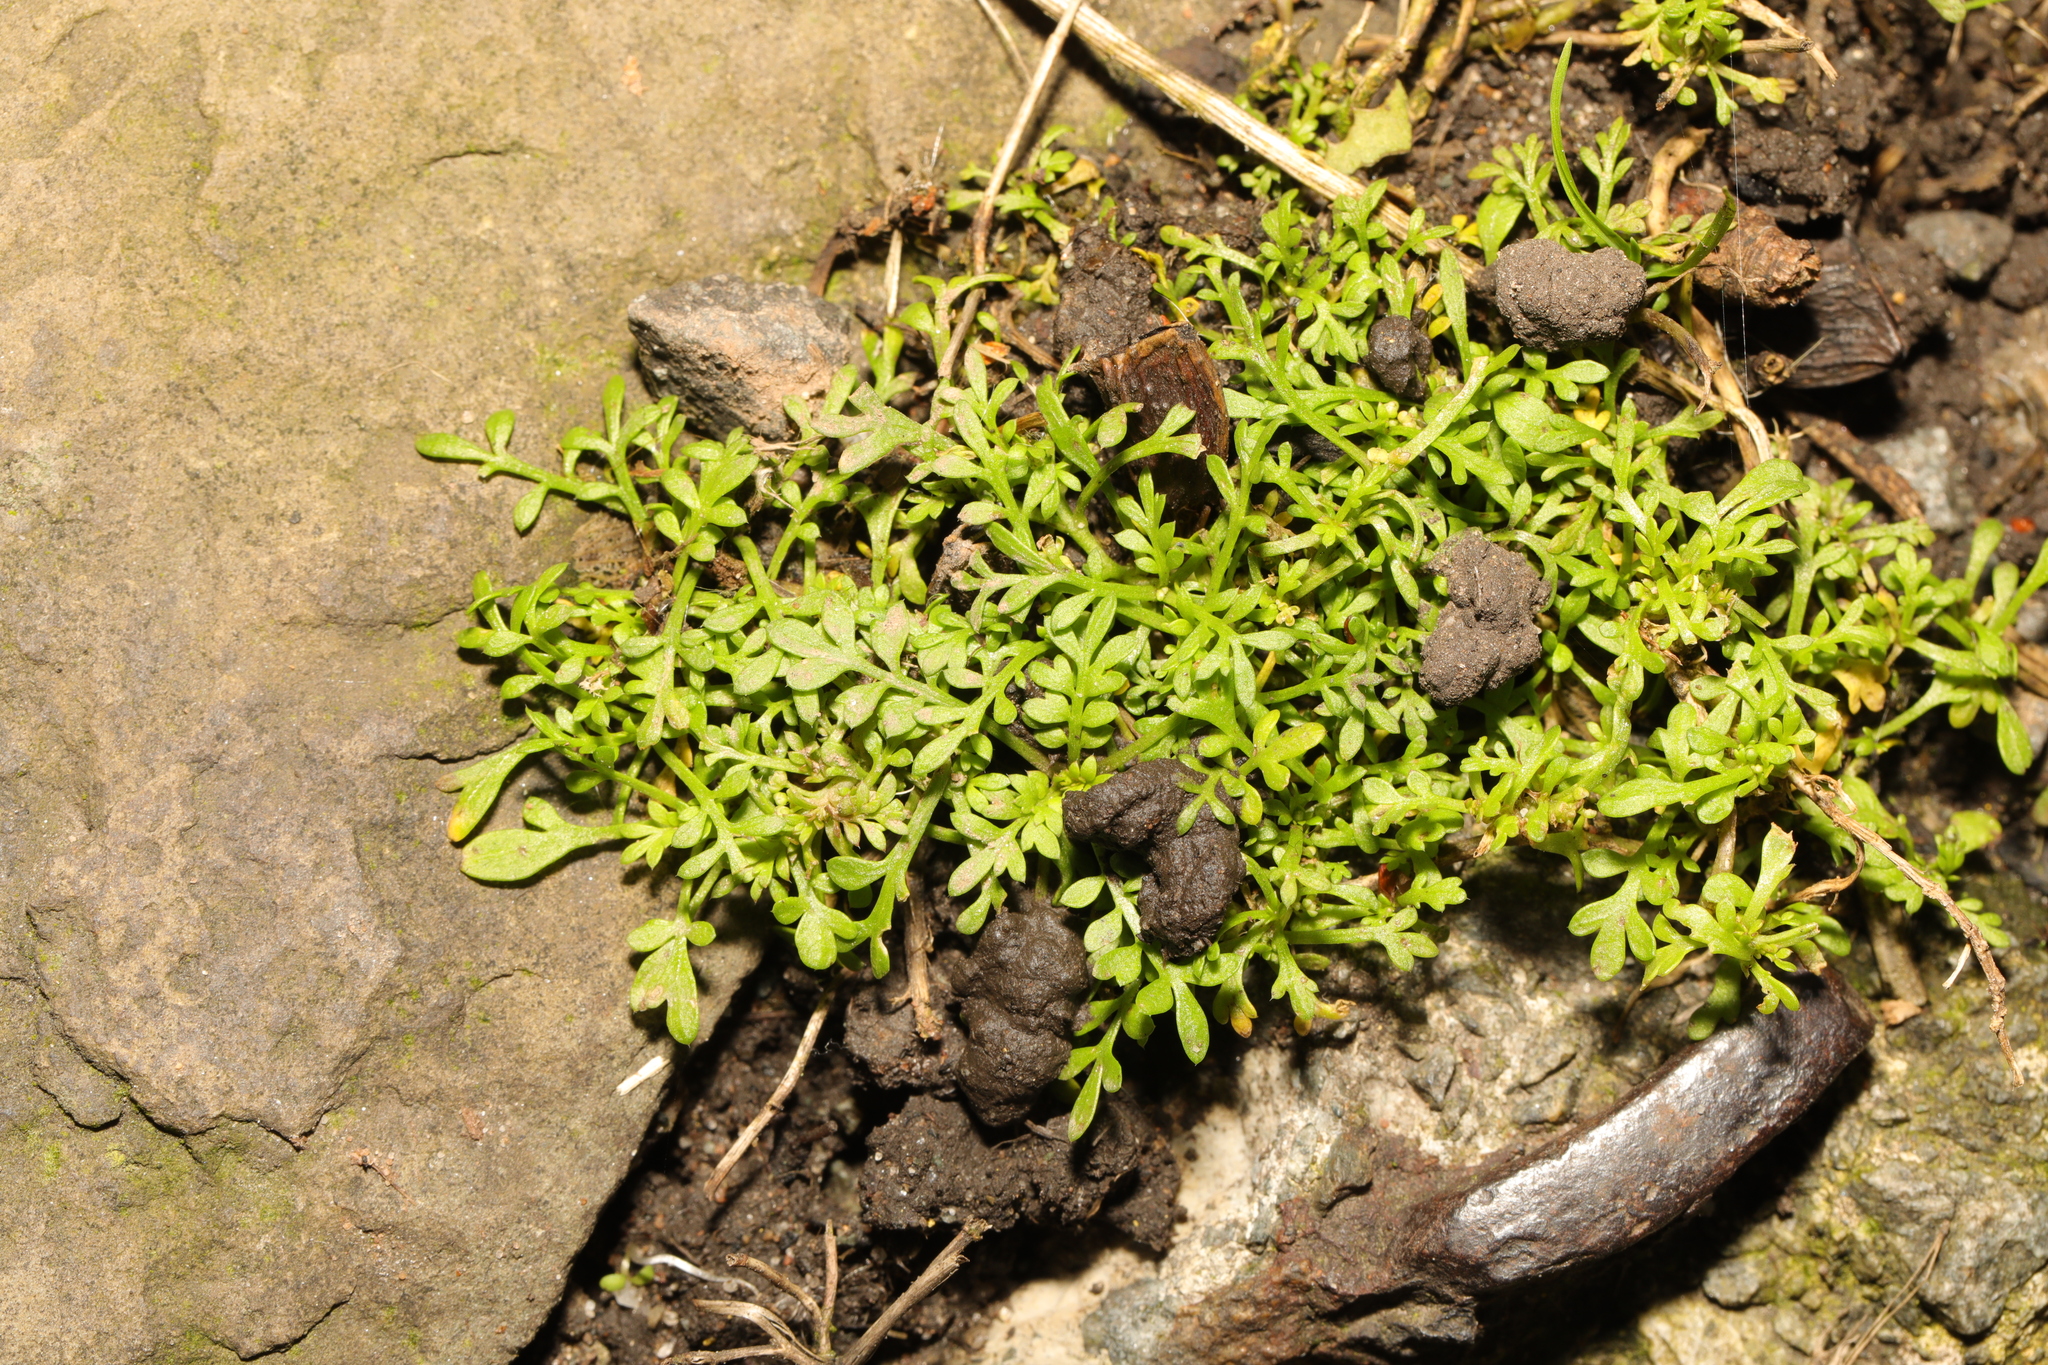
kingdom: Plantae
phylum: Tracheophyta
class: Magnoliopsida
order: Brassicales
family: Brassicaceae
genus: Lepidium
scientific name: Lepidium didymum
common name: Lesser swinecress
